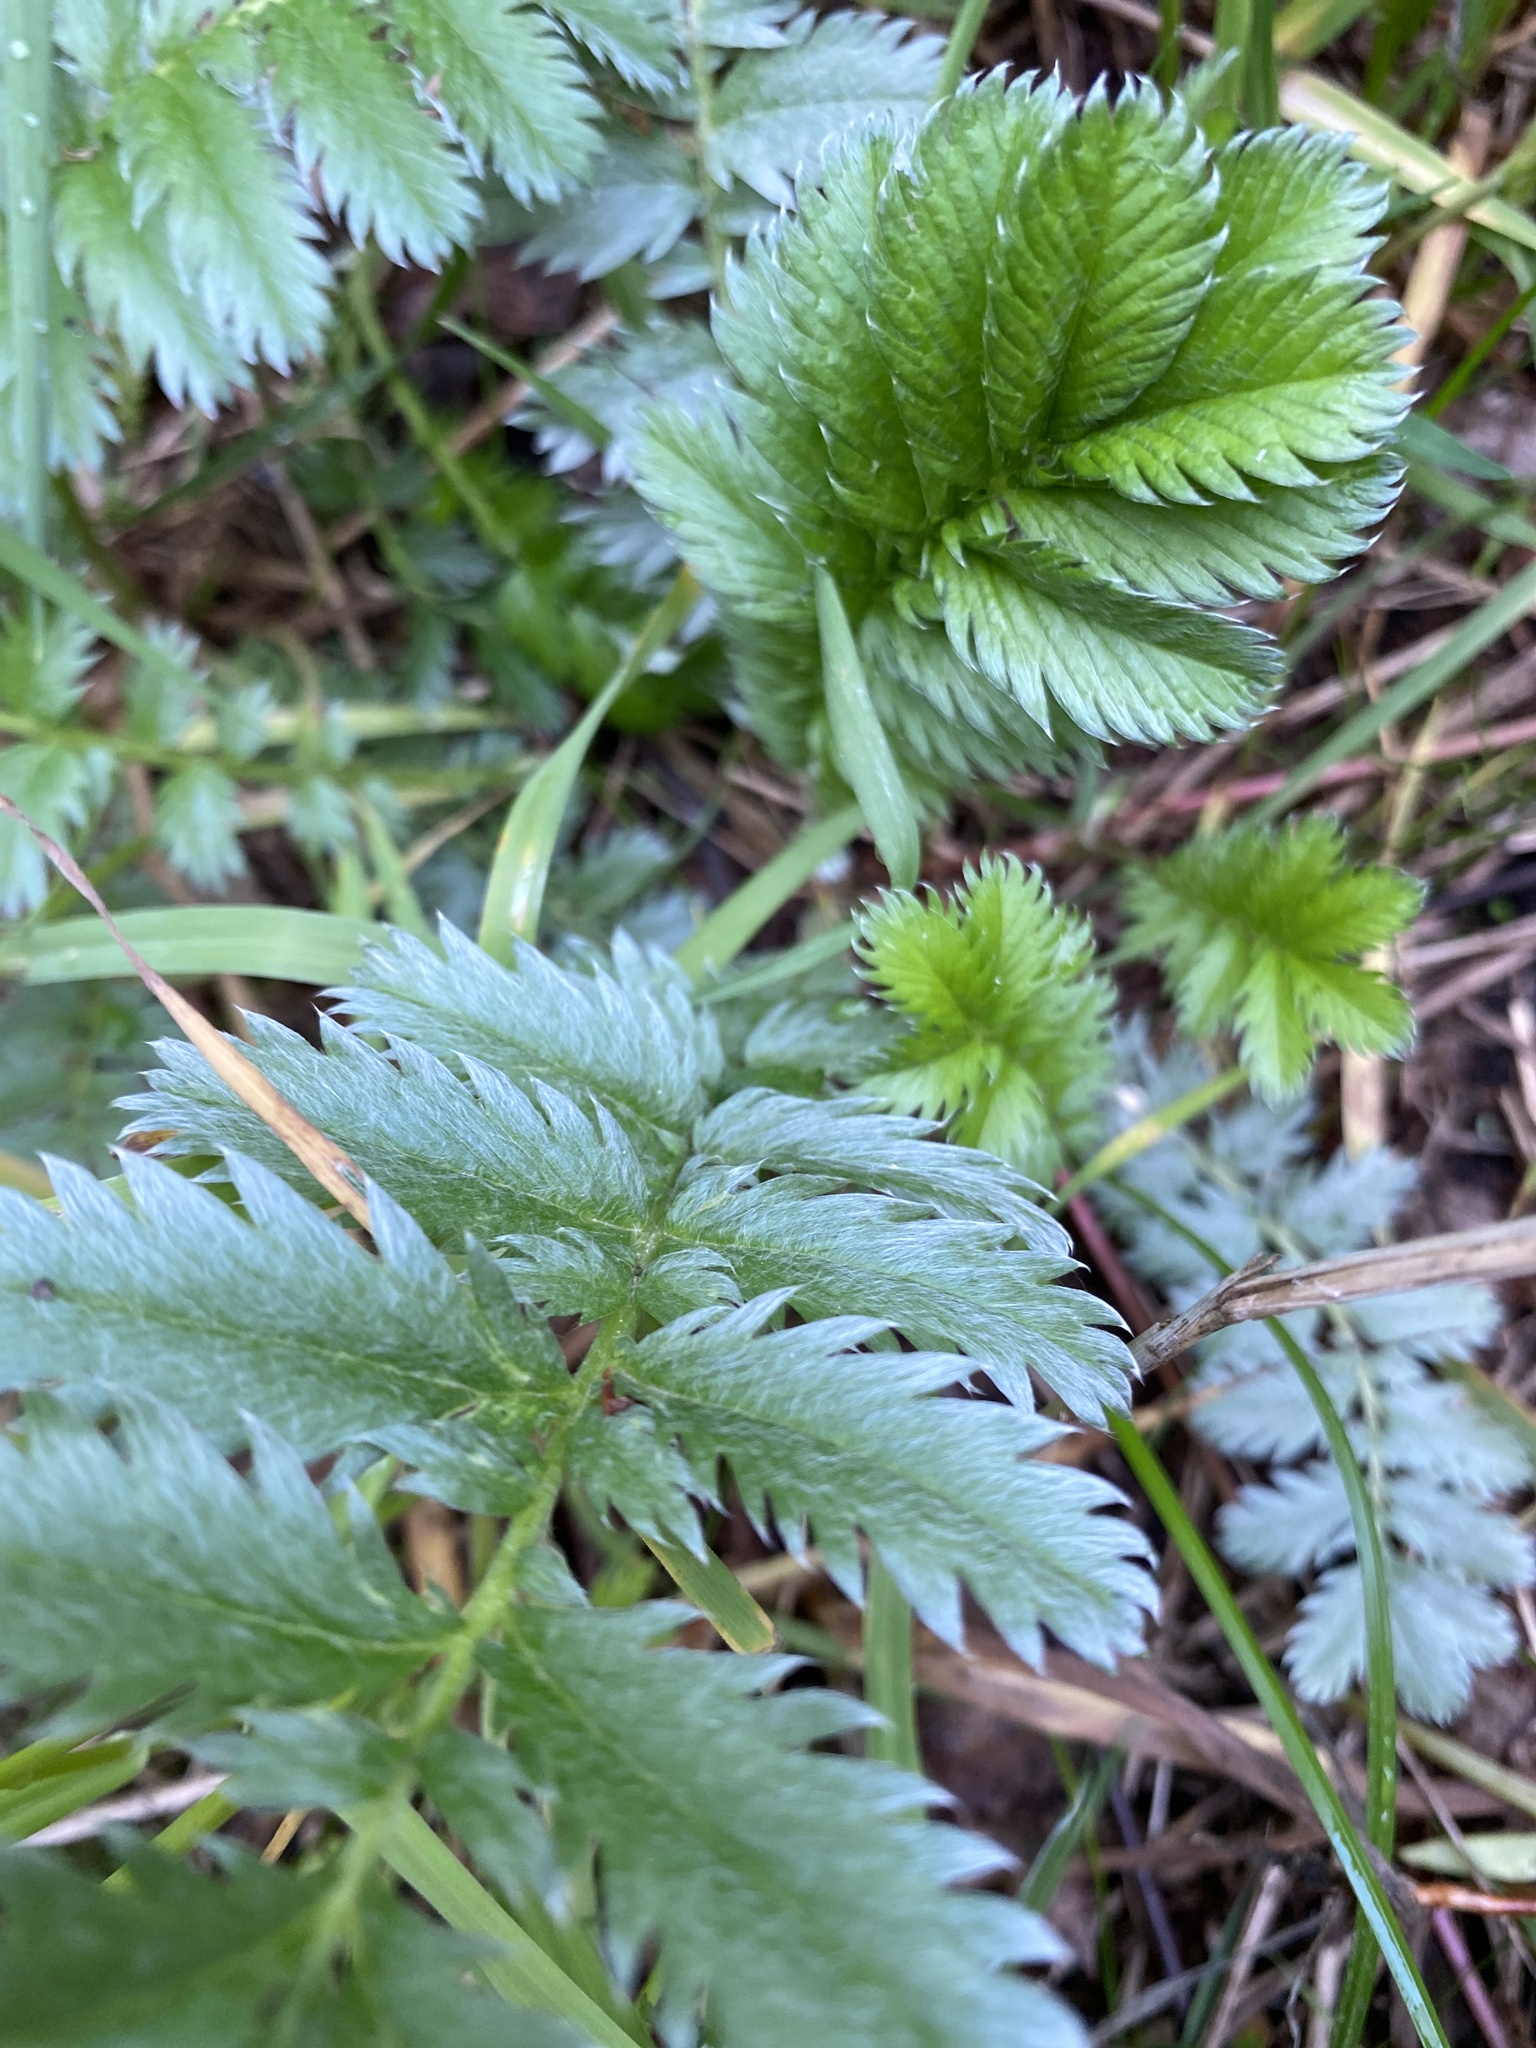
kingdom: Plantae
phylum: Tracheophyta
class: Magnoliopsida
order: Rosales
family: Rosaceae
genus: Argentina
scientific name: Argentina anserina
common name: Common silverweed
